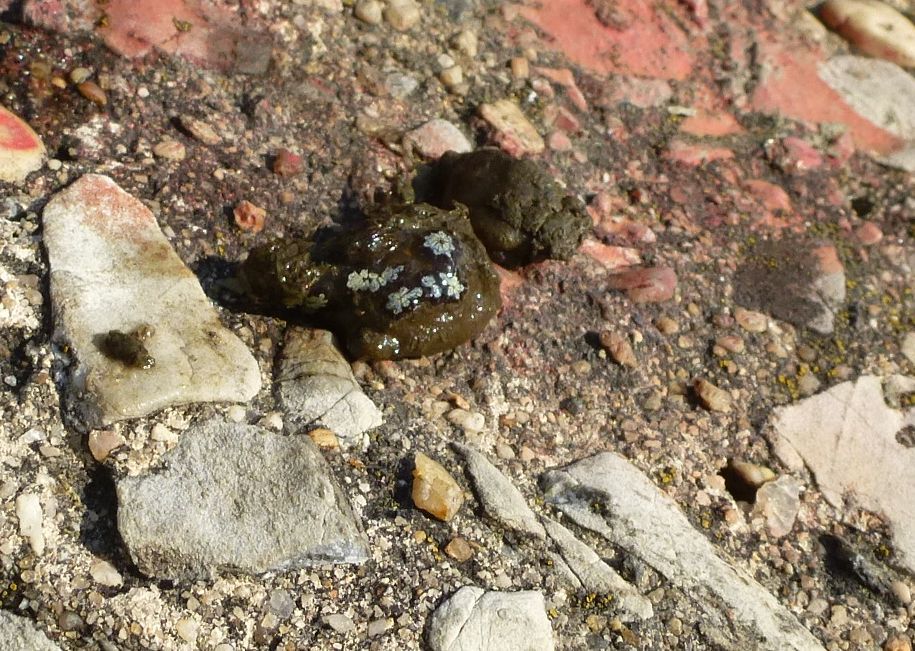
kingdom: Animalia
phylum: Chordata
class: Ascidiacea
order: Stolidobranchia
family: Styelidae
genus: Botryllus
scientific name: Botryllus schlosseri
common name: Golden star tunicate
